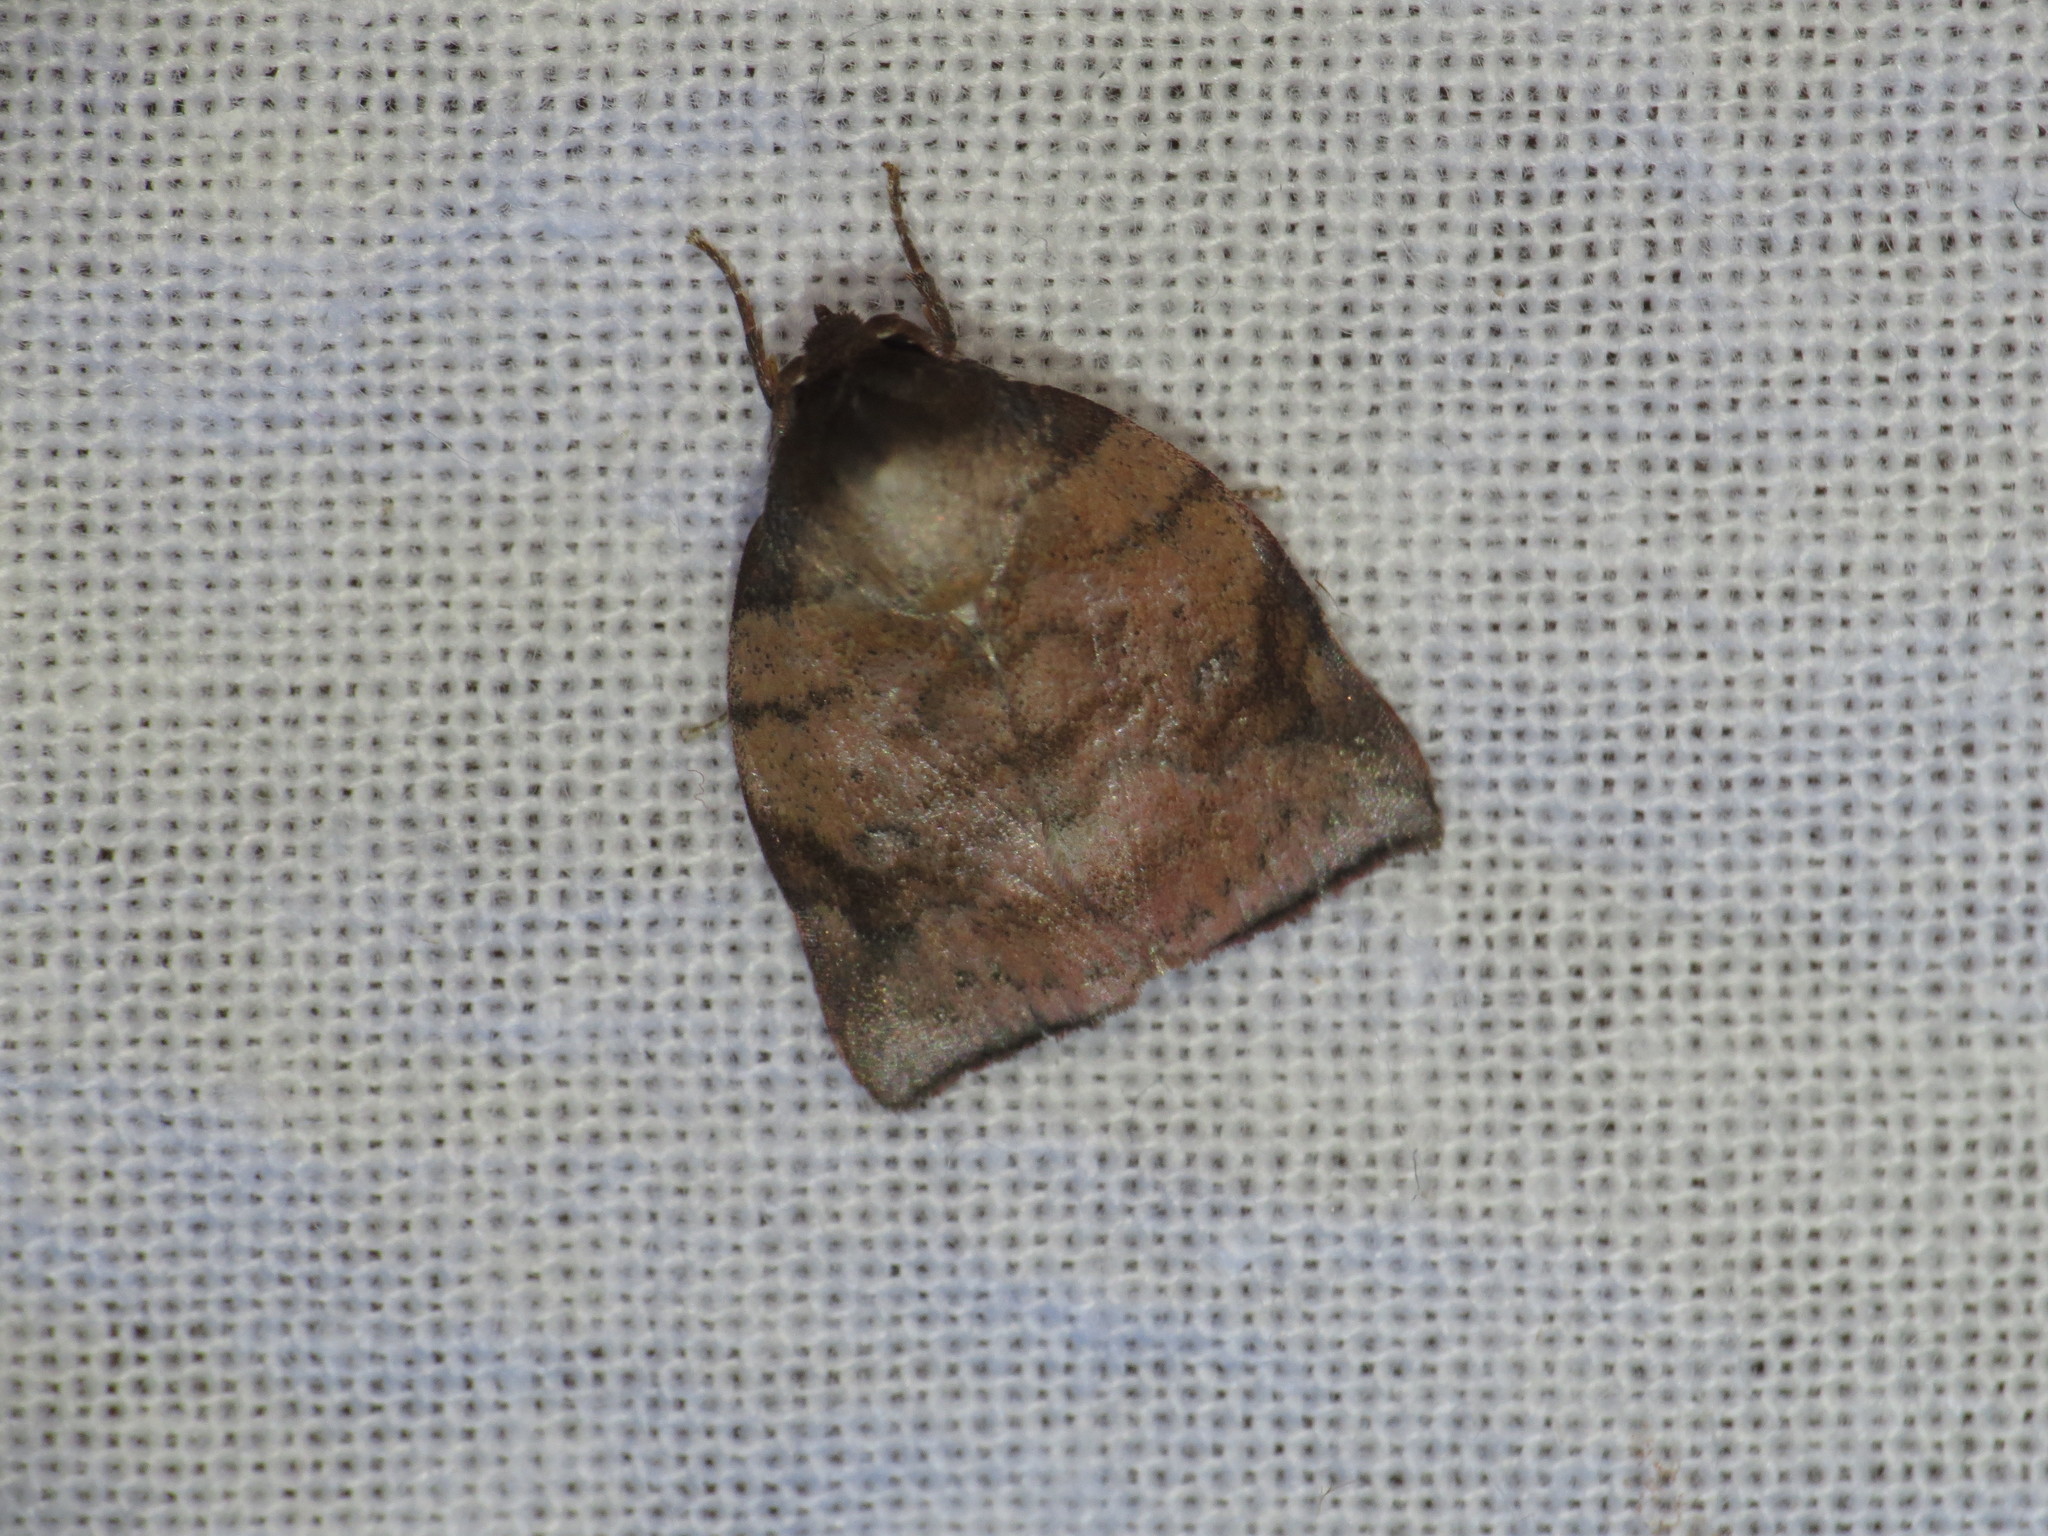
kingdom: Animalia
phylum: Arthropoda
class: Insecta
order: Lepidoptera
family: Nolidae
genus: Beara
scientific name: Beara falcata
